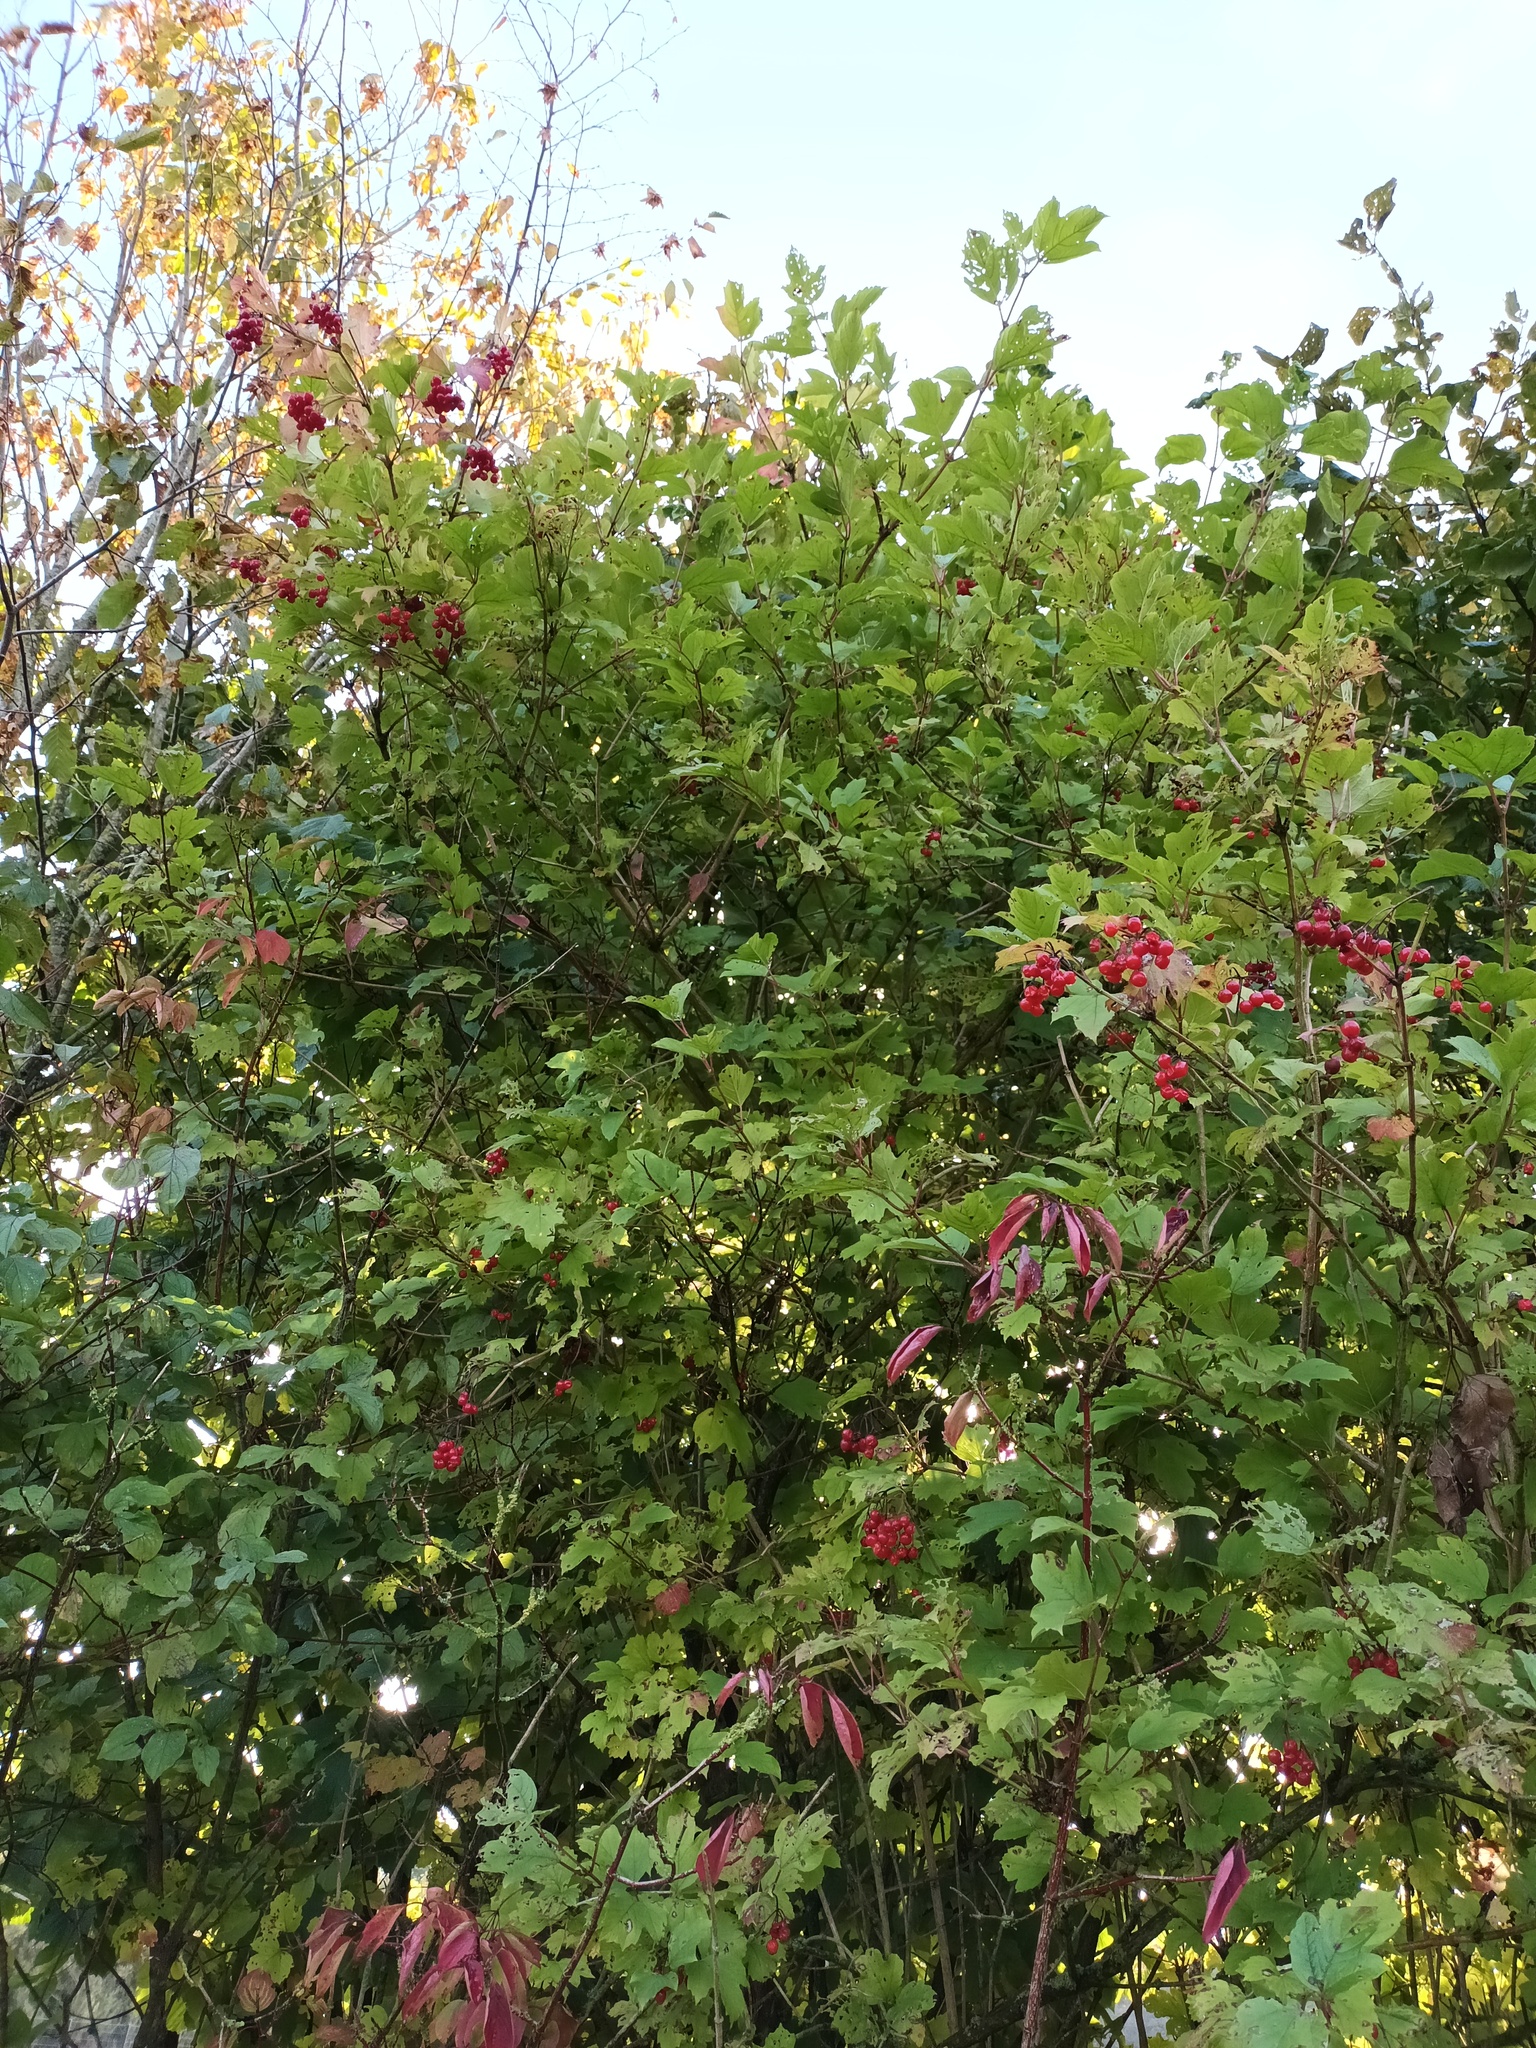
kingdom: Plantae
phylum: Tracheophyta
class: Magnoliopsida
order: Dipsacales
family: Viburnaceae
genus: Viburnum
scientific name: Viburnum opulus
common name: Guelder-rose
